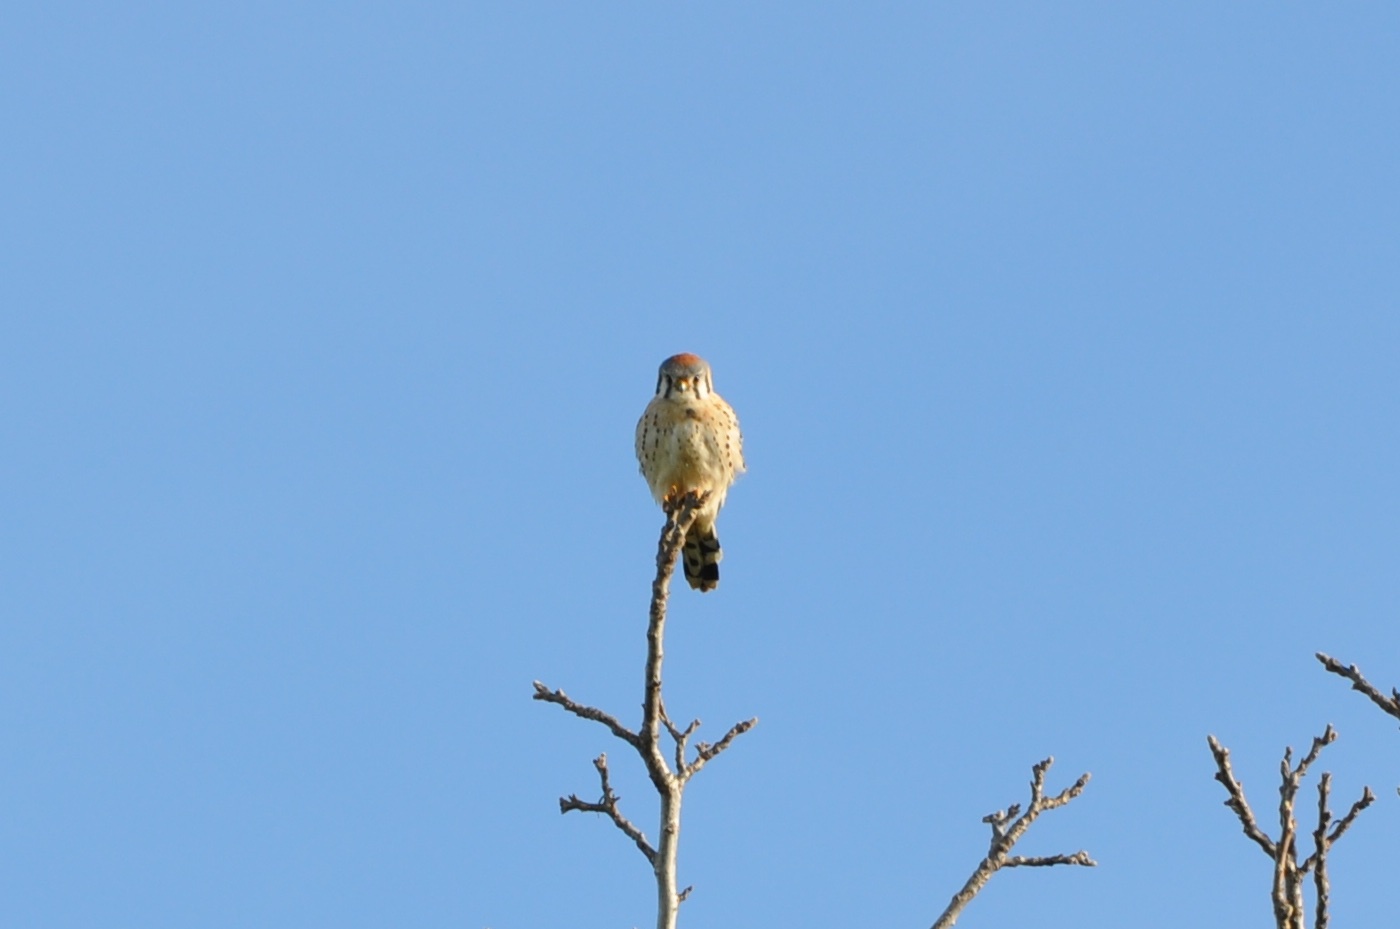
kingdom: Animalia
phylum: Chordata
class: Aves
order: Falconiformes
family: Falconidae
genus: Falco
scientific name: Falco sparverius
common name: American kestrel
